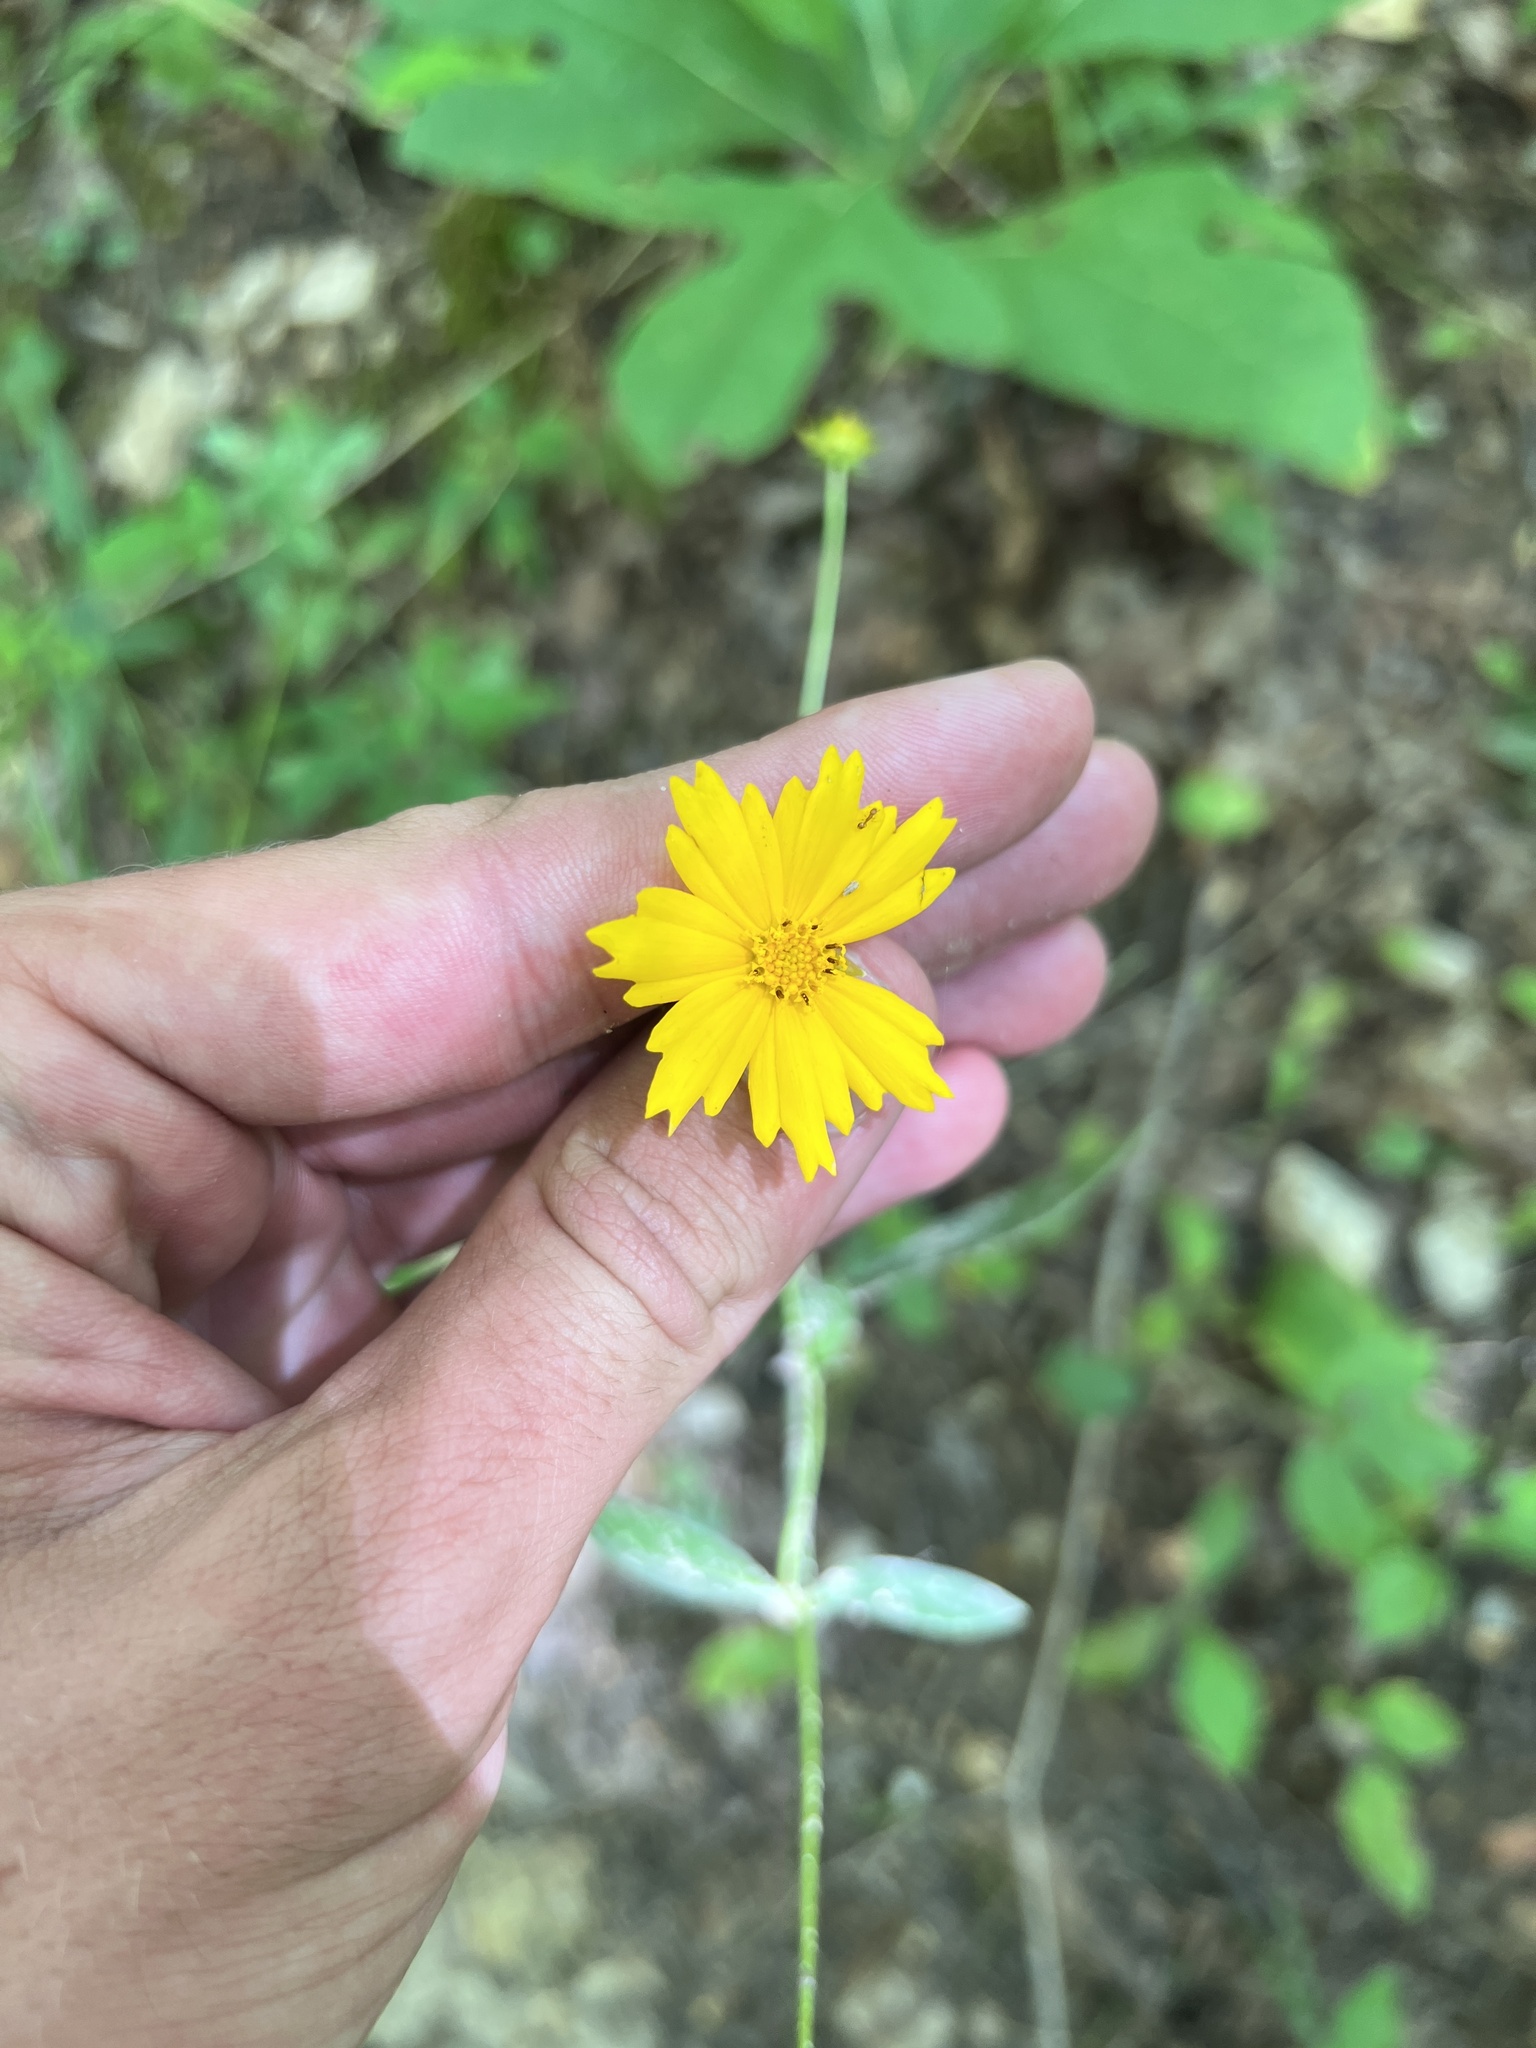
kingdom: Plantae
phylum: Tracheophyta
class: Magnoliopsida
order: Asterales
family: Asteraceae
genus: Coreopsis
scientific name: Coreopsis pubescens
